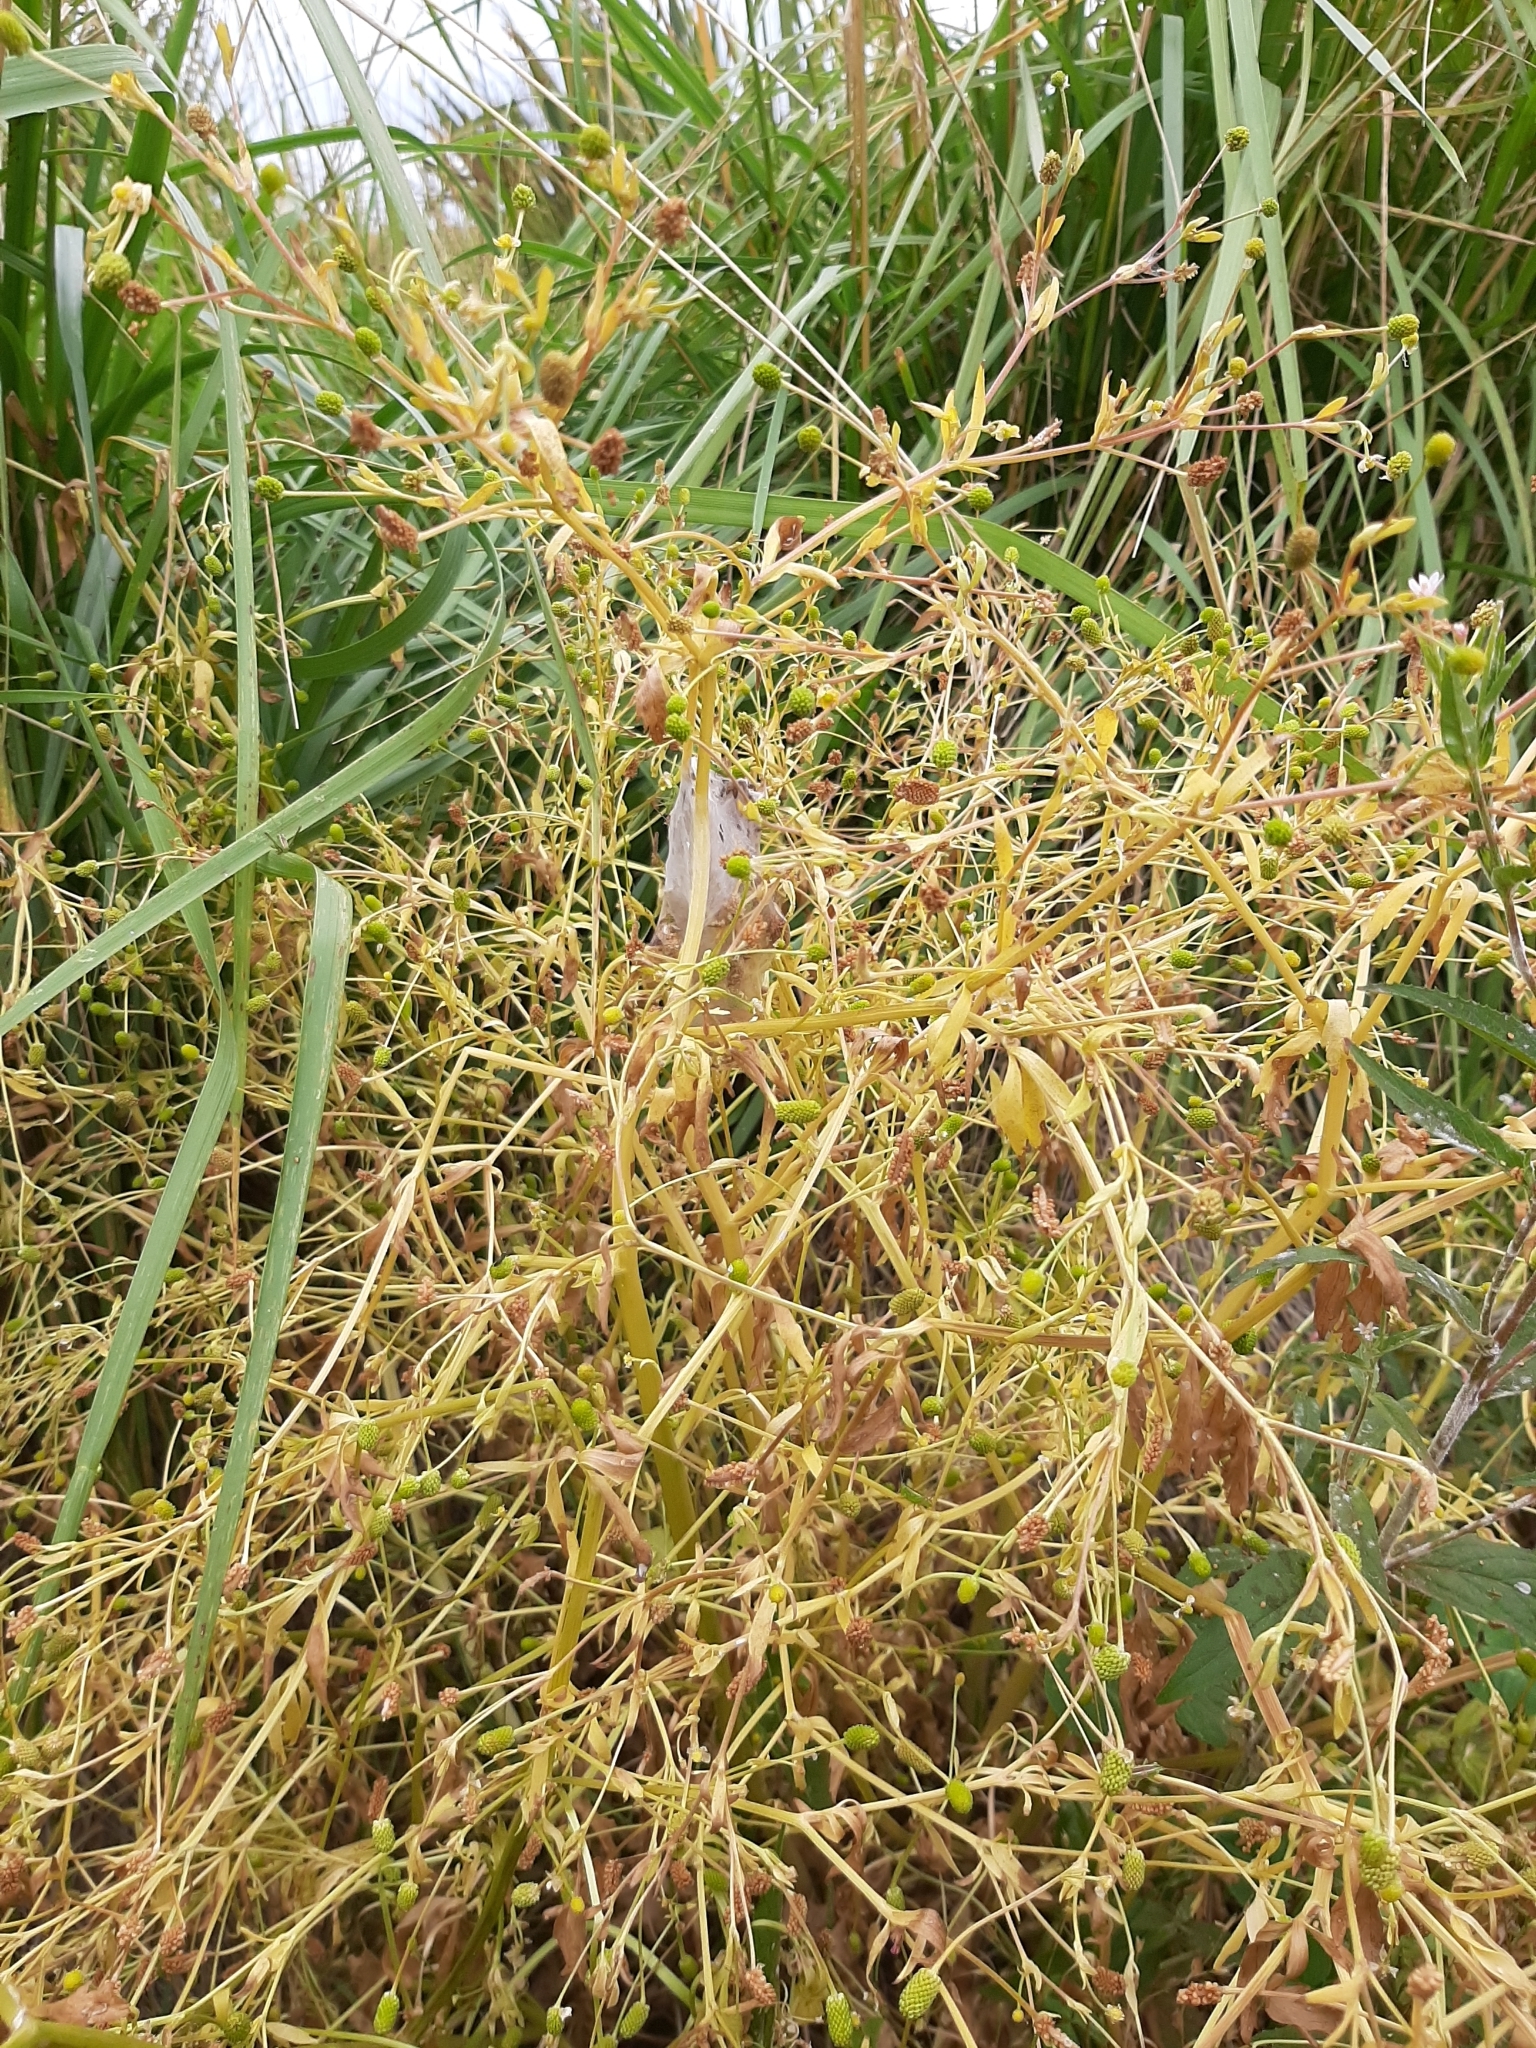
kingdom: Plantae
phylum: Tracheophyta
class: Magnoliopsida
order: Ranunculales
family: Ranunculaceae
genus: Ranunculus
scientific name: Ranunculus sceleratus
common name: Celery-leaved buttercup
